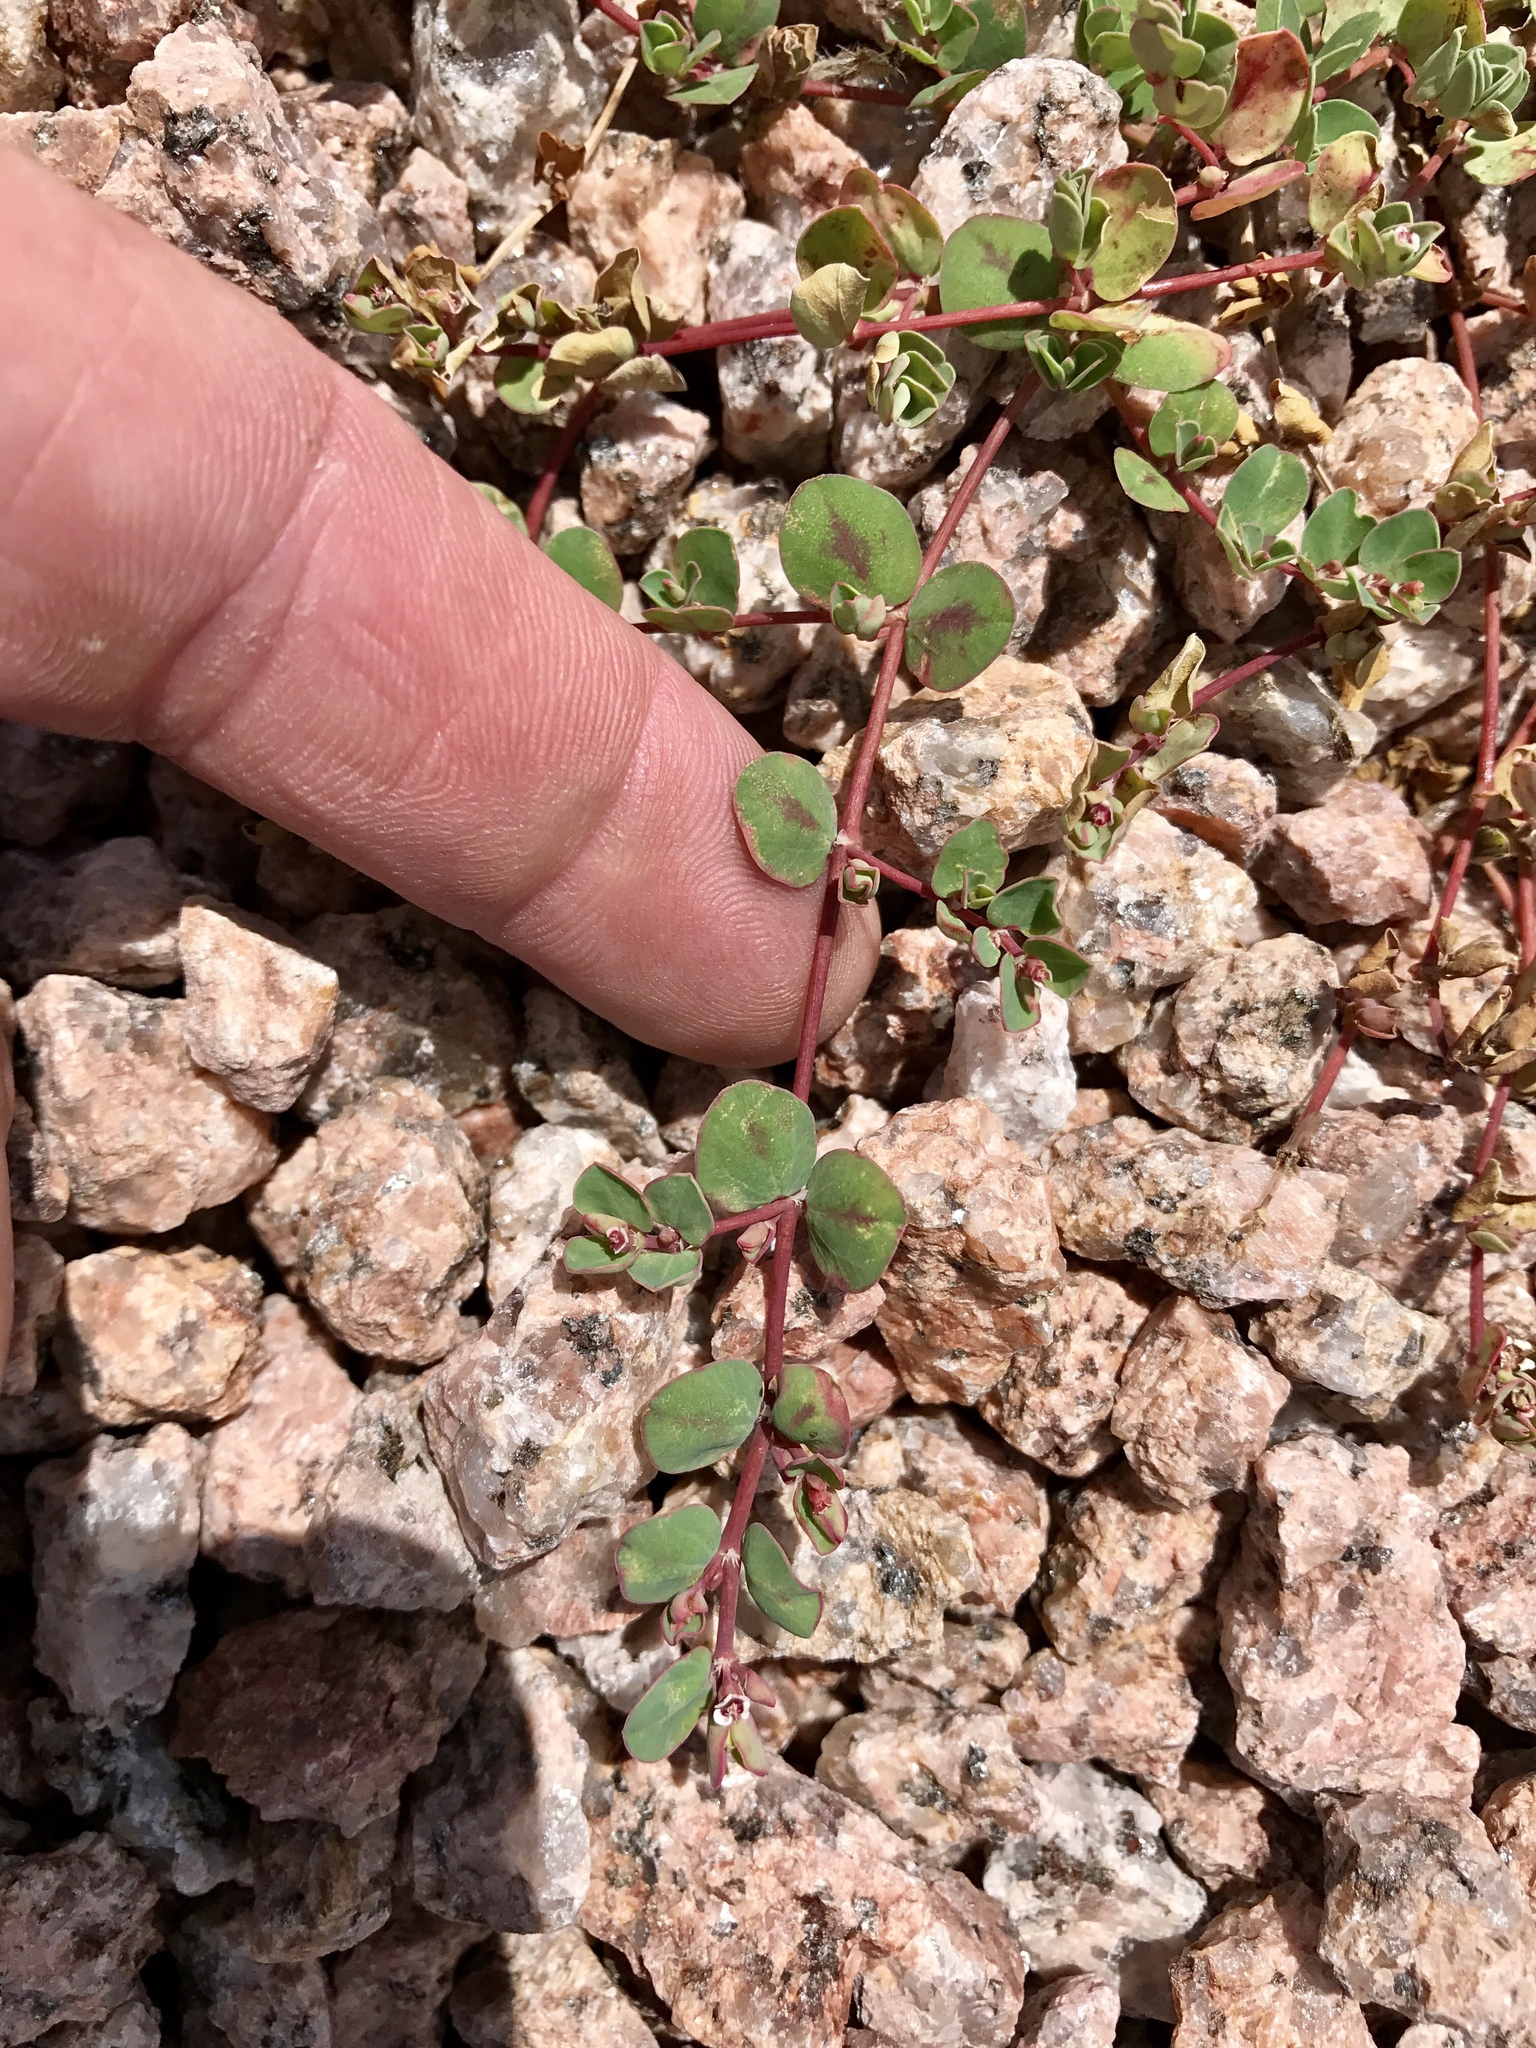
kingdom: Plantae
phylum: Tracheophyta
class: Magnoliopsida
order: Malpighiales
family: Euphorbiaceae
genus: Euphorbia
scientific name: Euphorbia albomarginata
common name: Whitemargin sandmat
